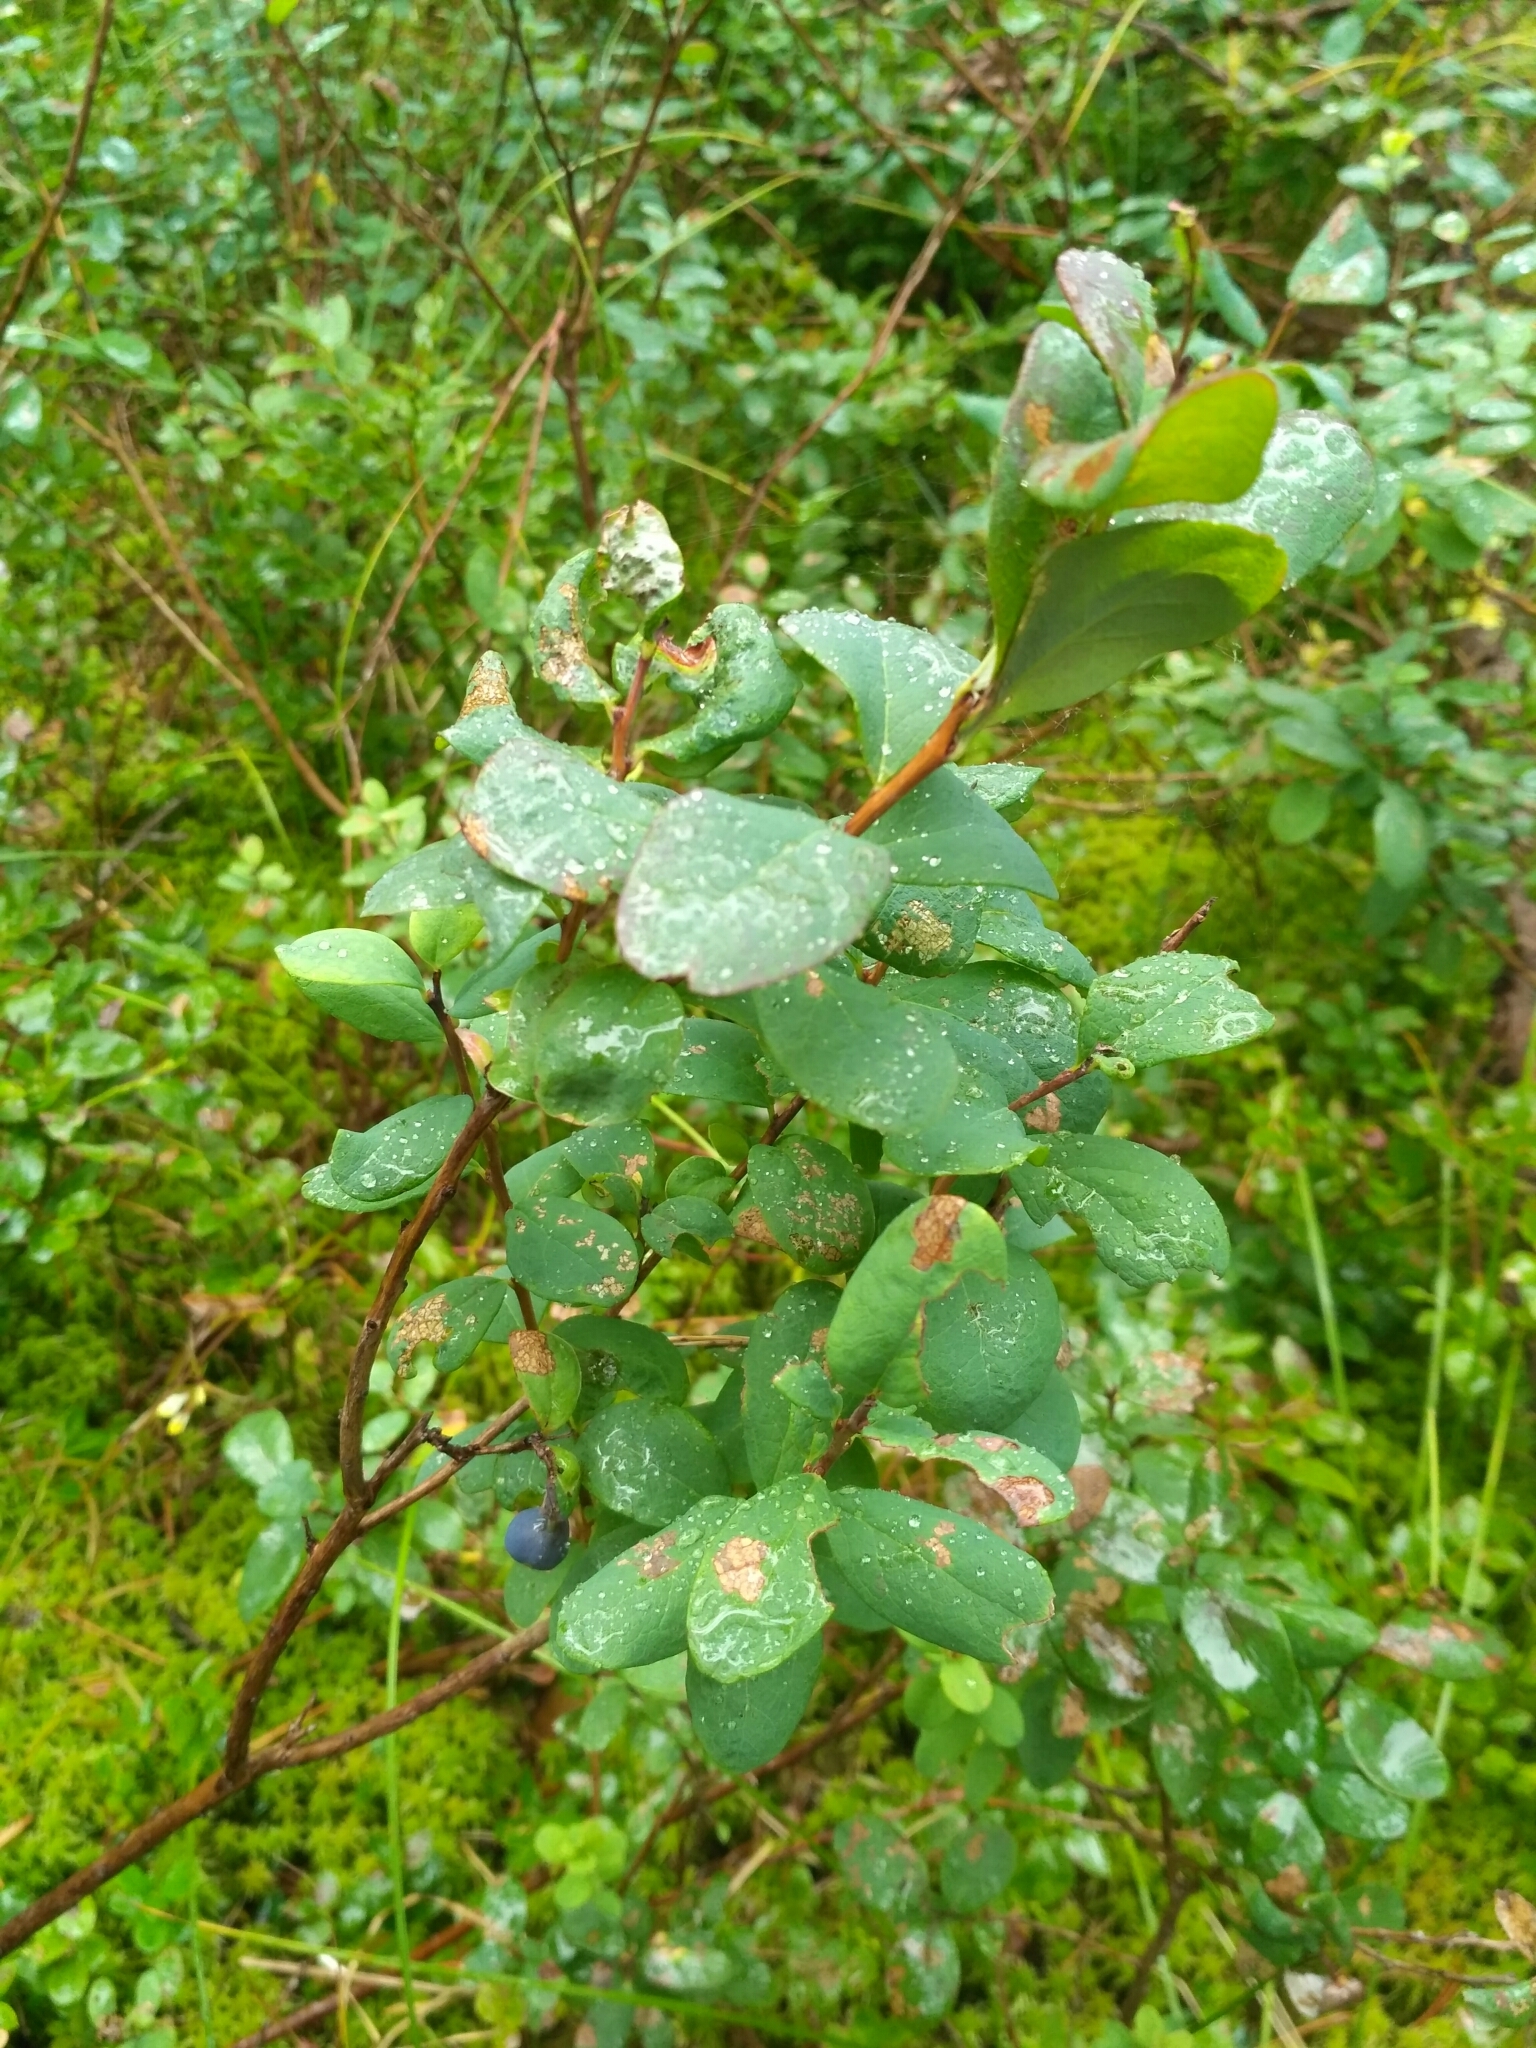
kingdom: Plantae
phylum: Tracheophyta
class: Magnoliopsida
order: Ericales
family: Ericaceae
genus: Vaccinium
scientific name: Vaccinium uliginosum
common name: Bog bilberry
